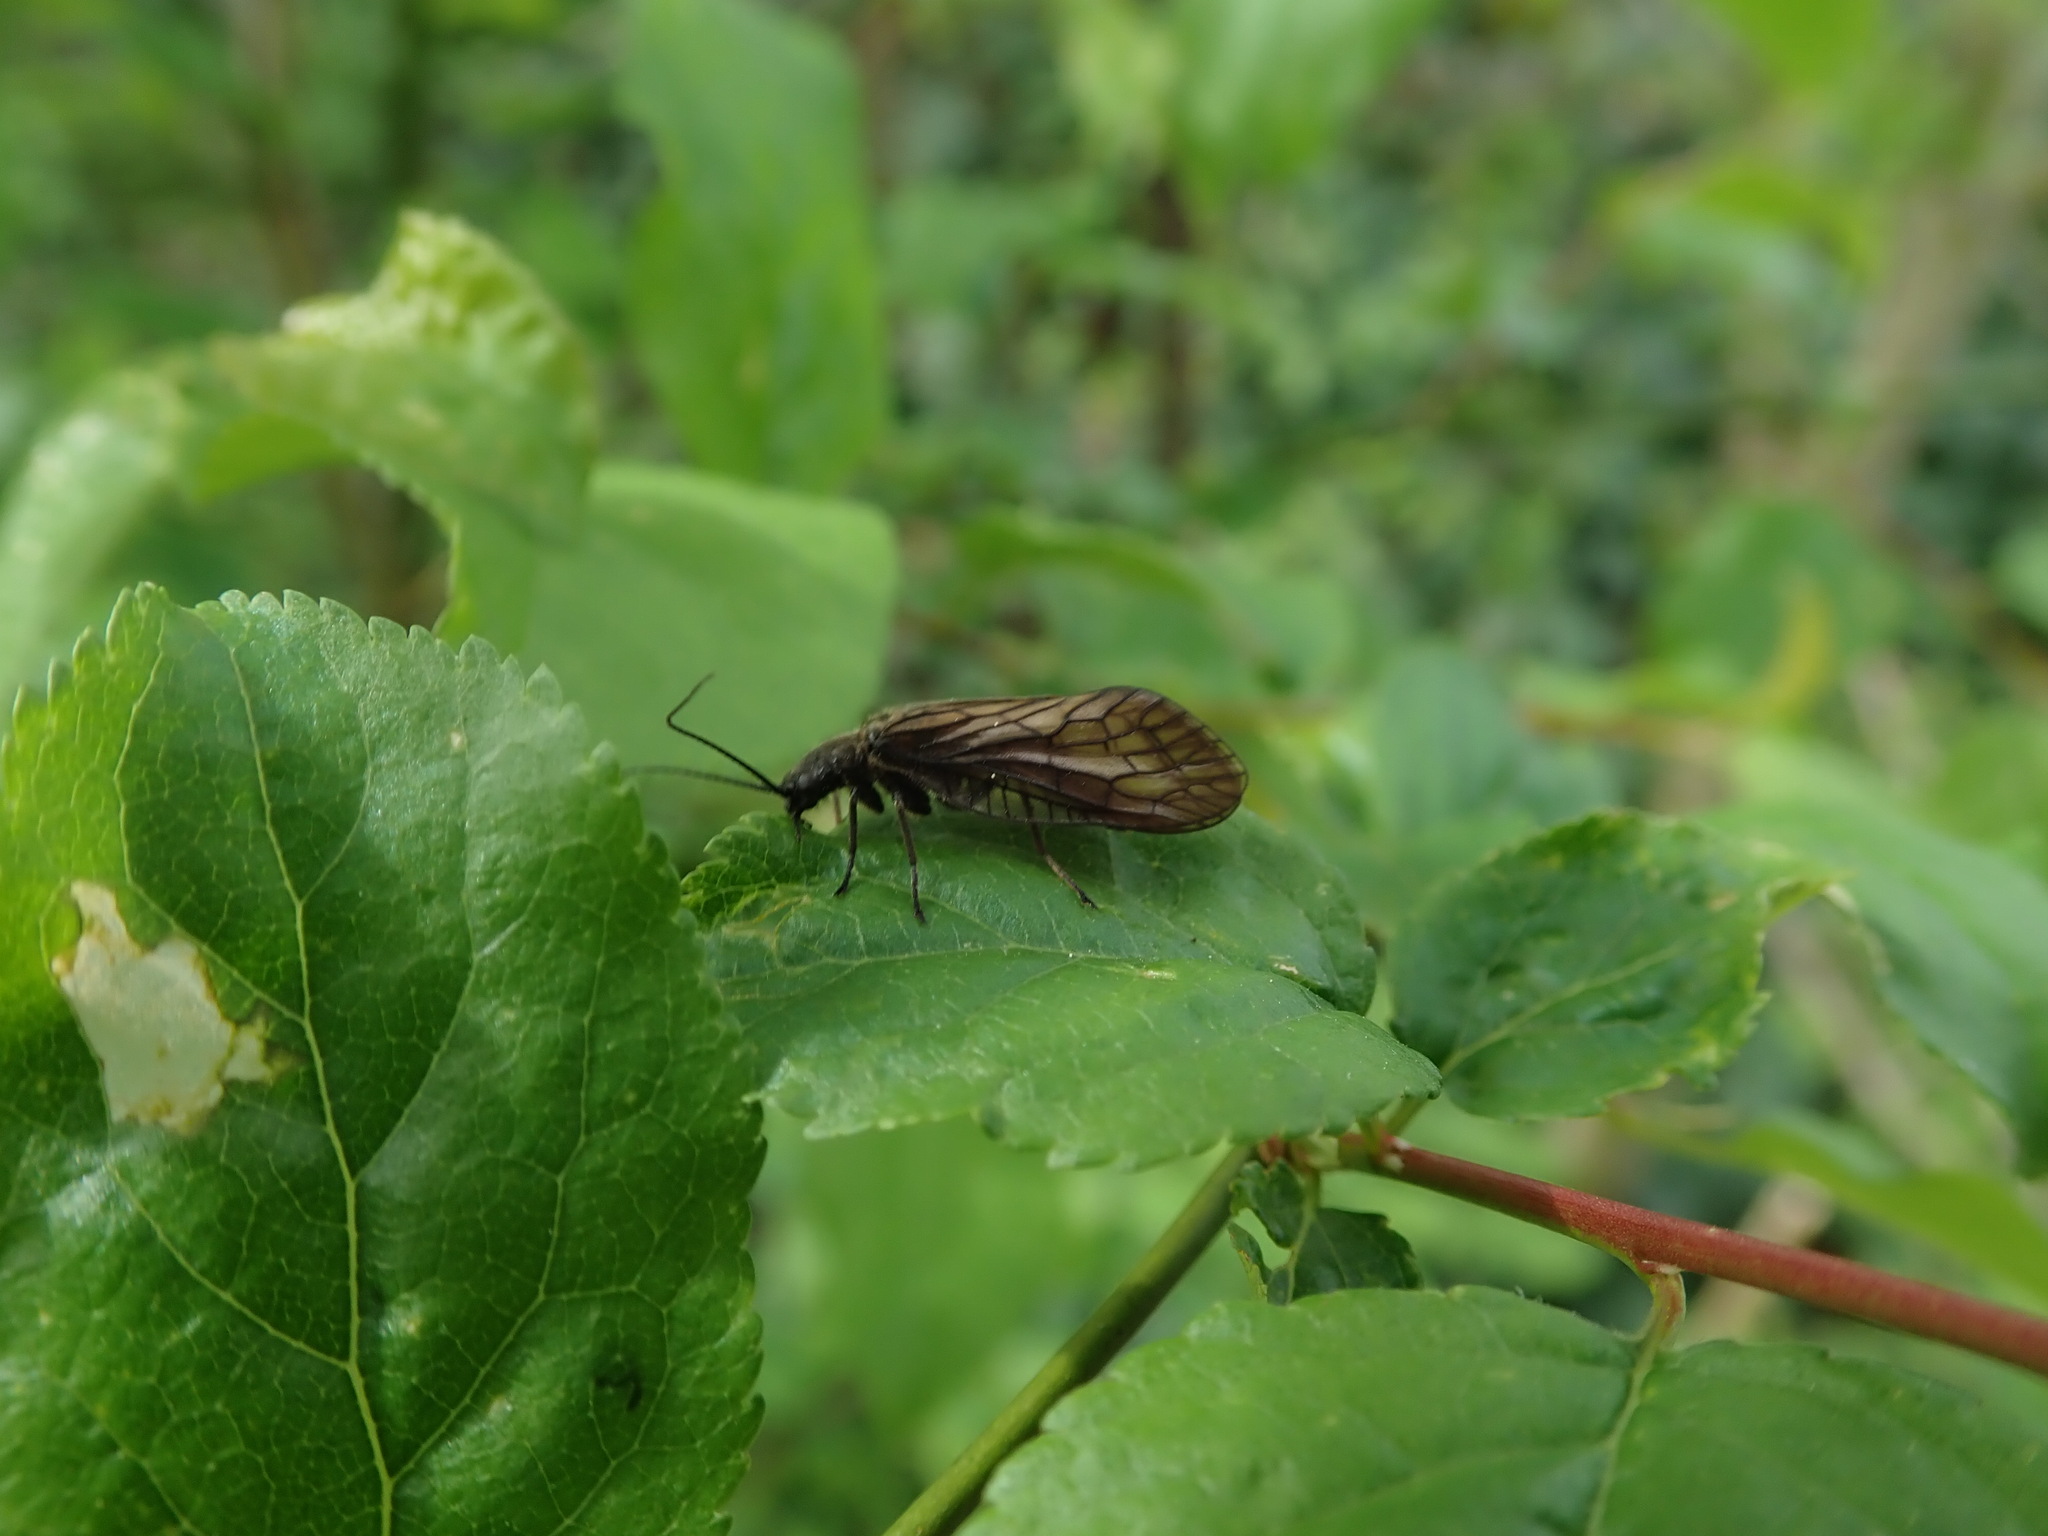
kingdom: Animalia
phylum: Arthropoda
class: Insecta
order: Megaloptera
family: Sialidae
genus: Sialis
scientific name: Sialis
